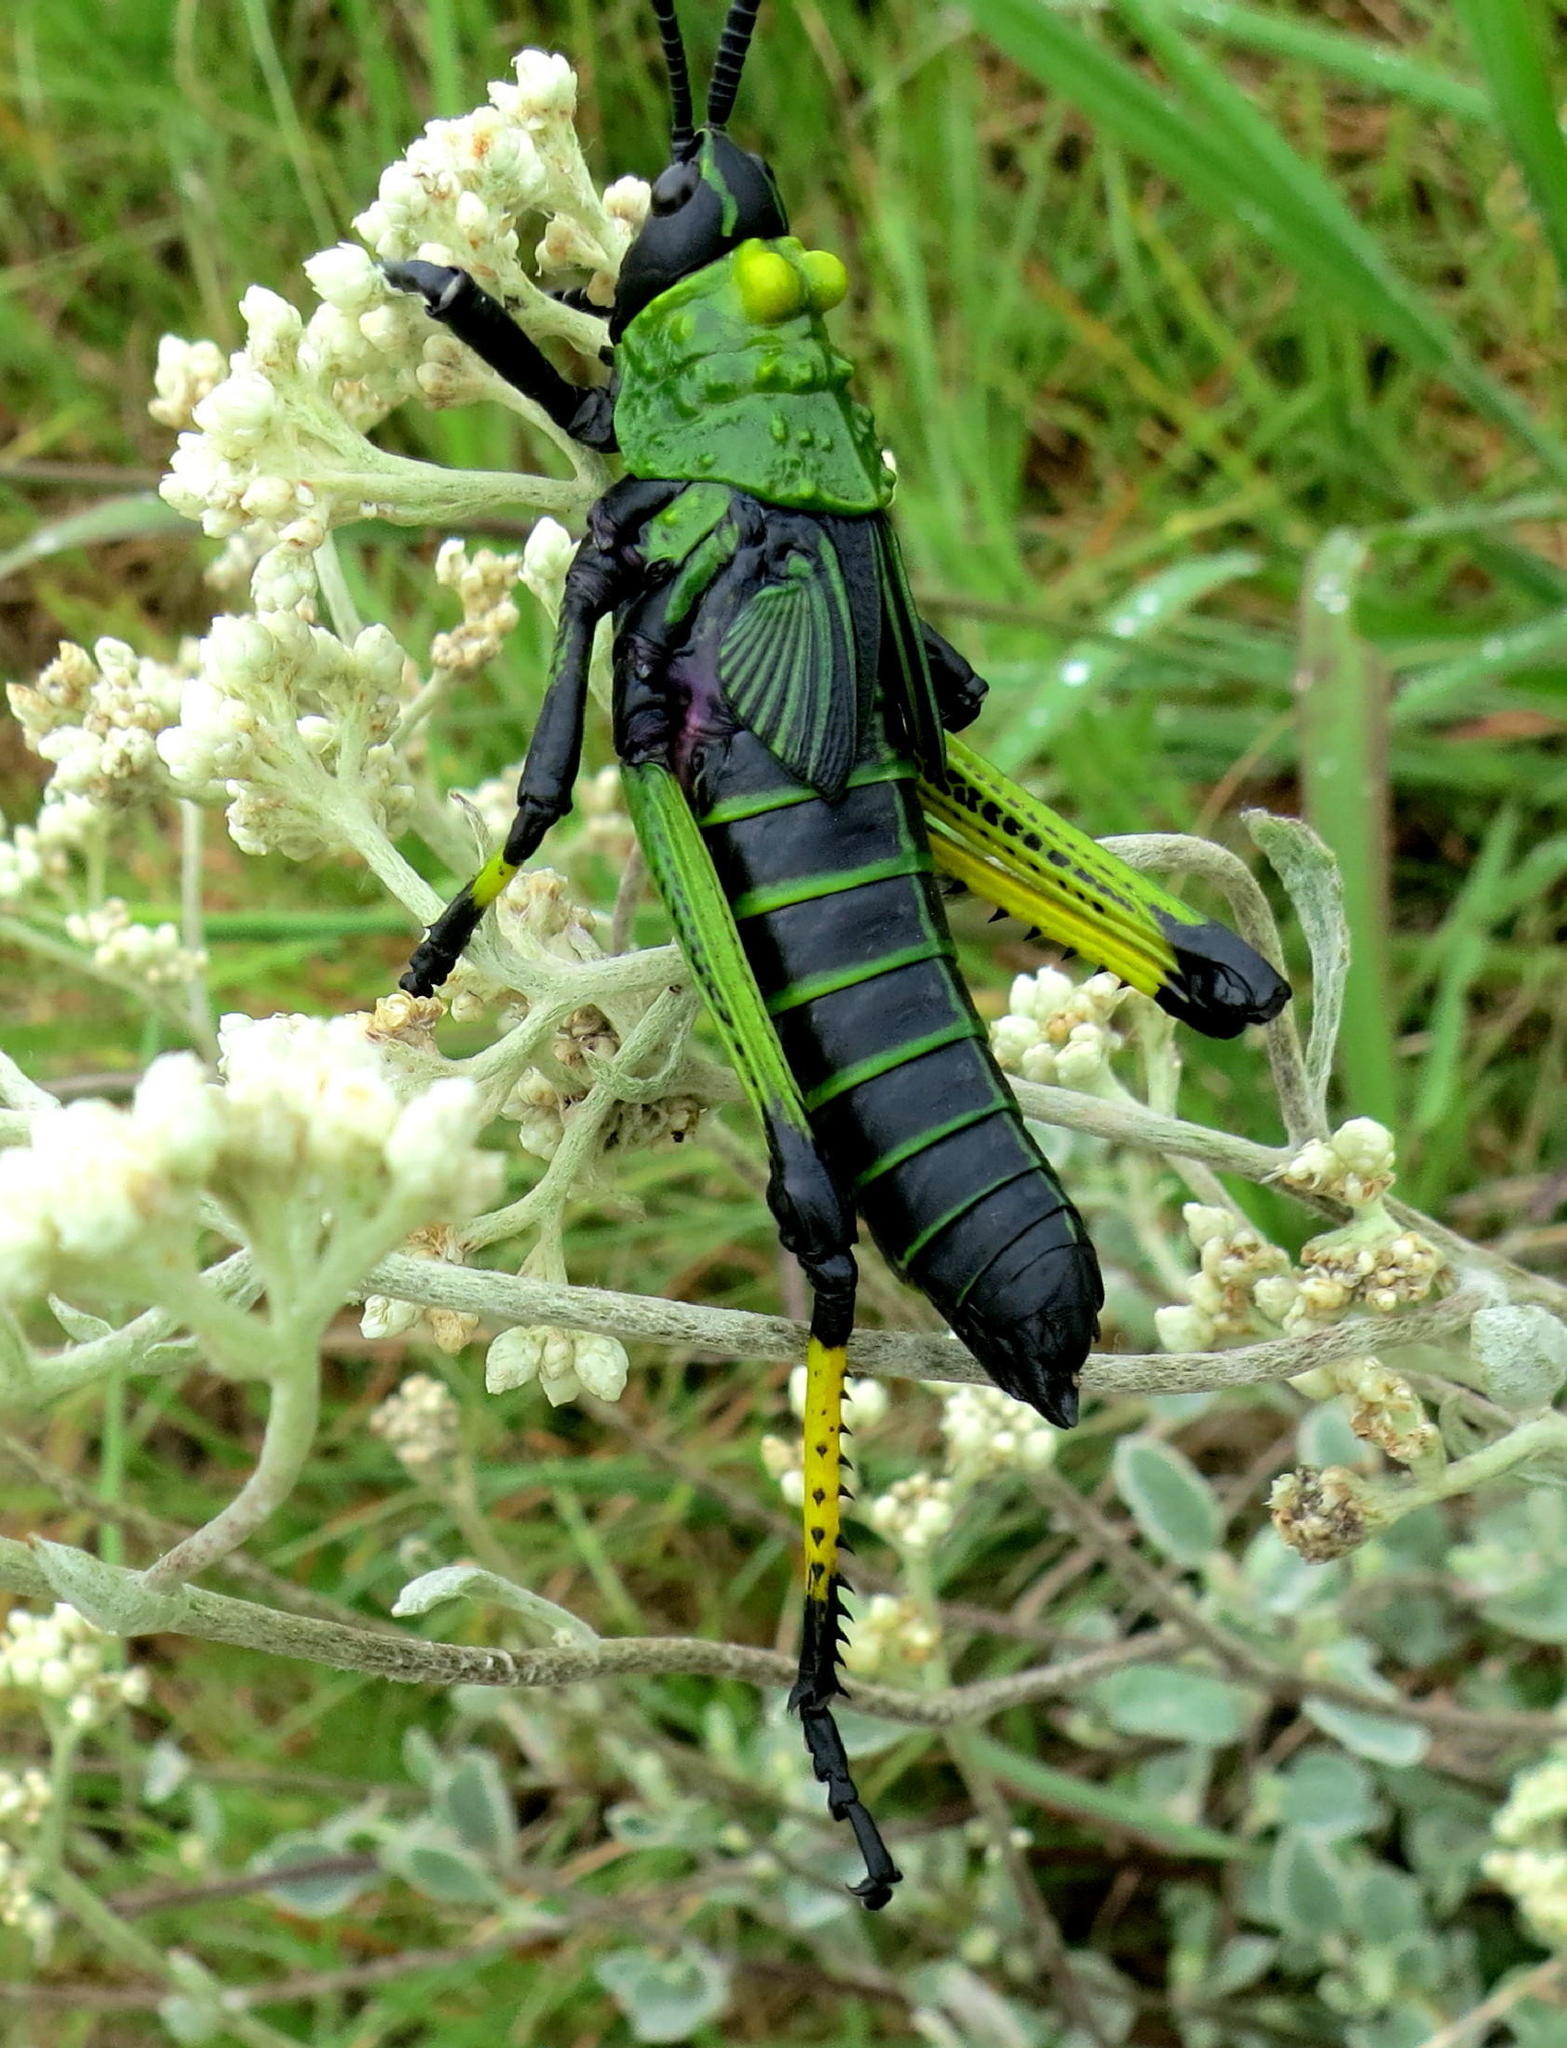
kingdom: Animalia
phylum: Arthropoda
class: Insecta
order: Orthoptera
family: Pyrgomorphidae
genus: Phymateus
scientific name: Phymateus leprosus
